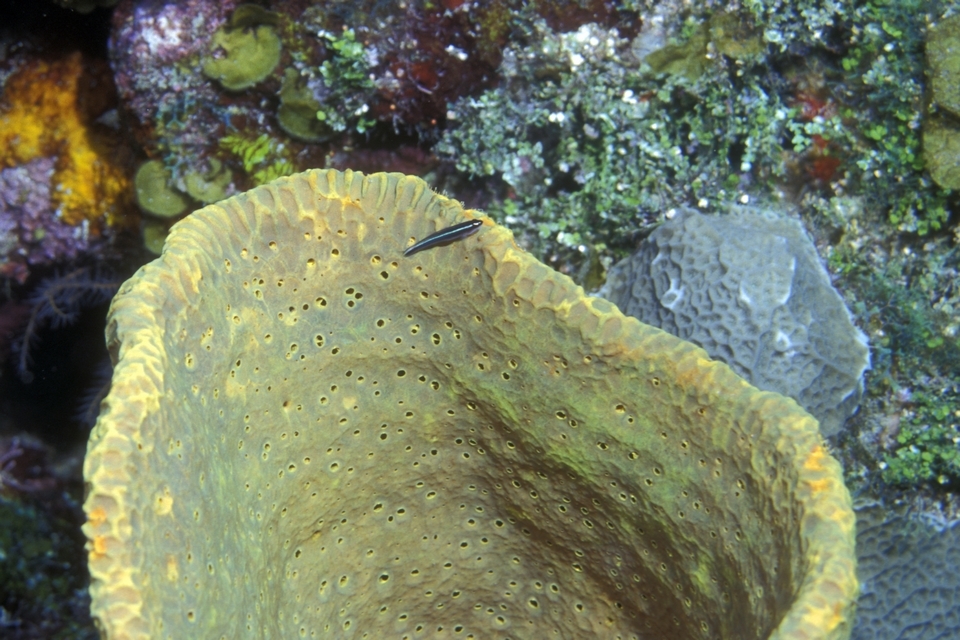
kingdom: Animalia
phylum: Porifera
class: Demospongiae
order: Verongiida
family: Aplysinidae
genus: Verongula
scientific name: Verongula gigantea
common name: Netted barrel sponge
